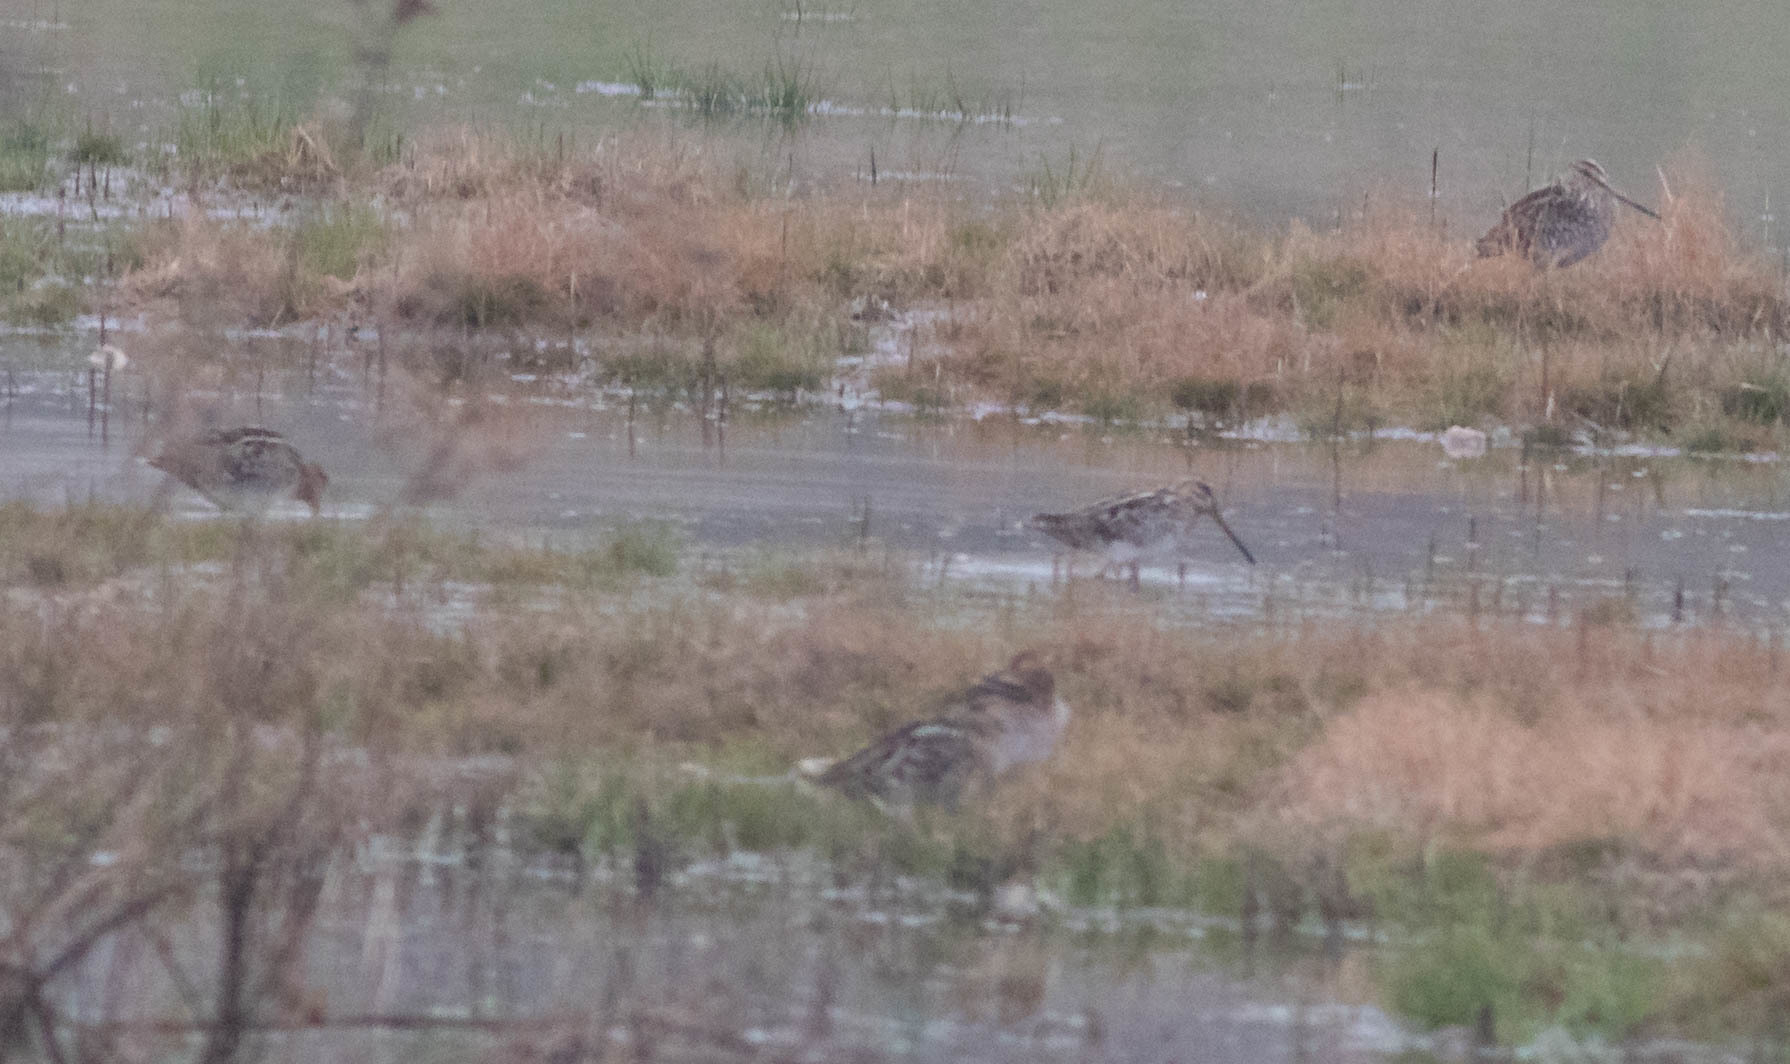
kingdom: Animalia
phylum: Chordata
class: Aves
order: Charadriiformes
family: Scolopacidae
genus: Gallinago
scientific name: Gallinago delicata
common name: Wilson's snipe
